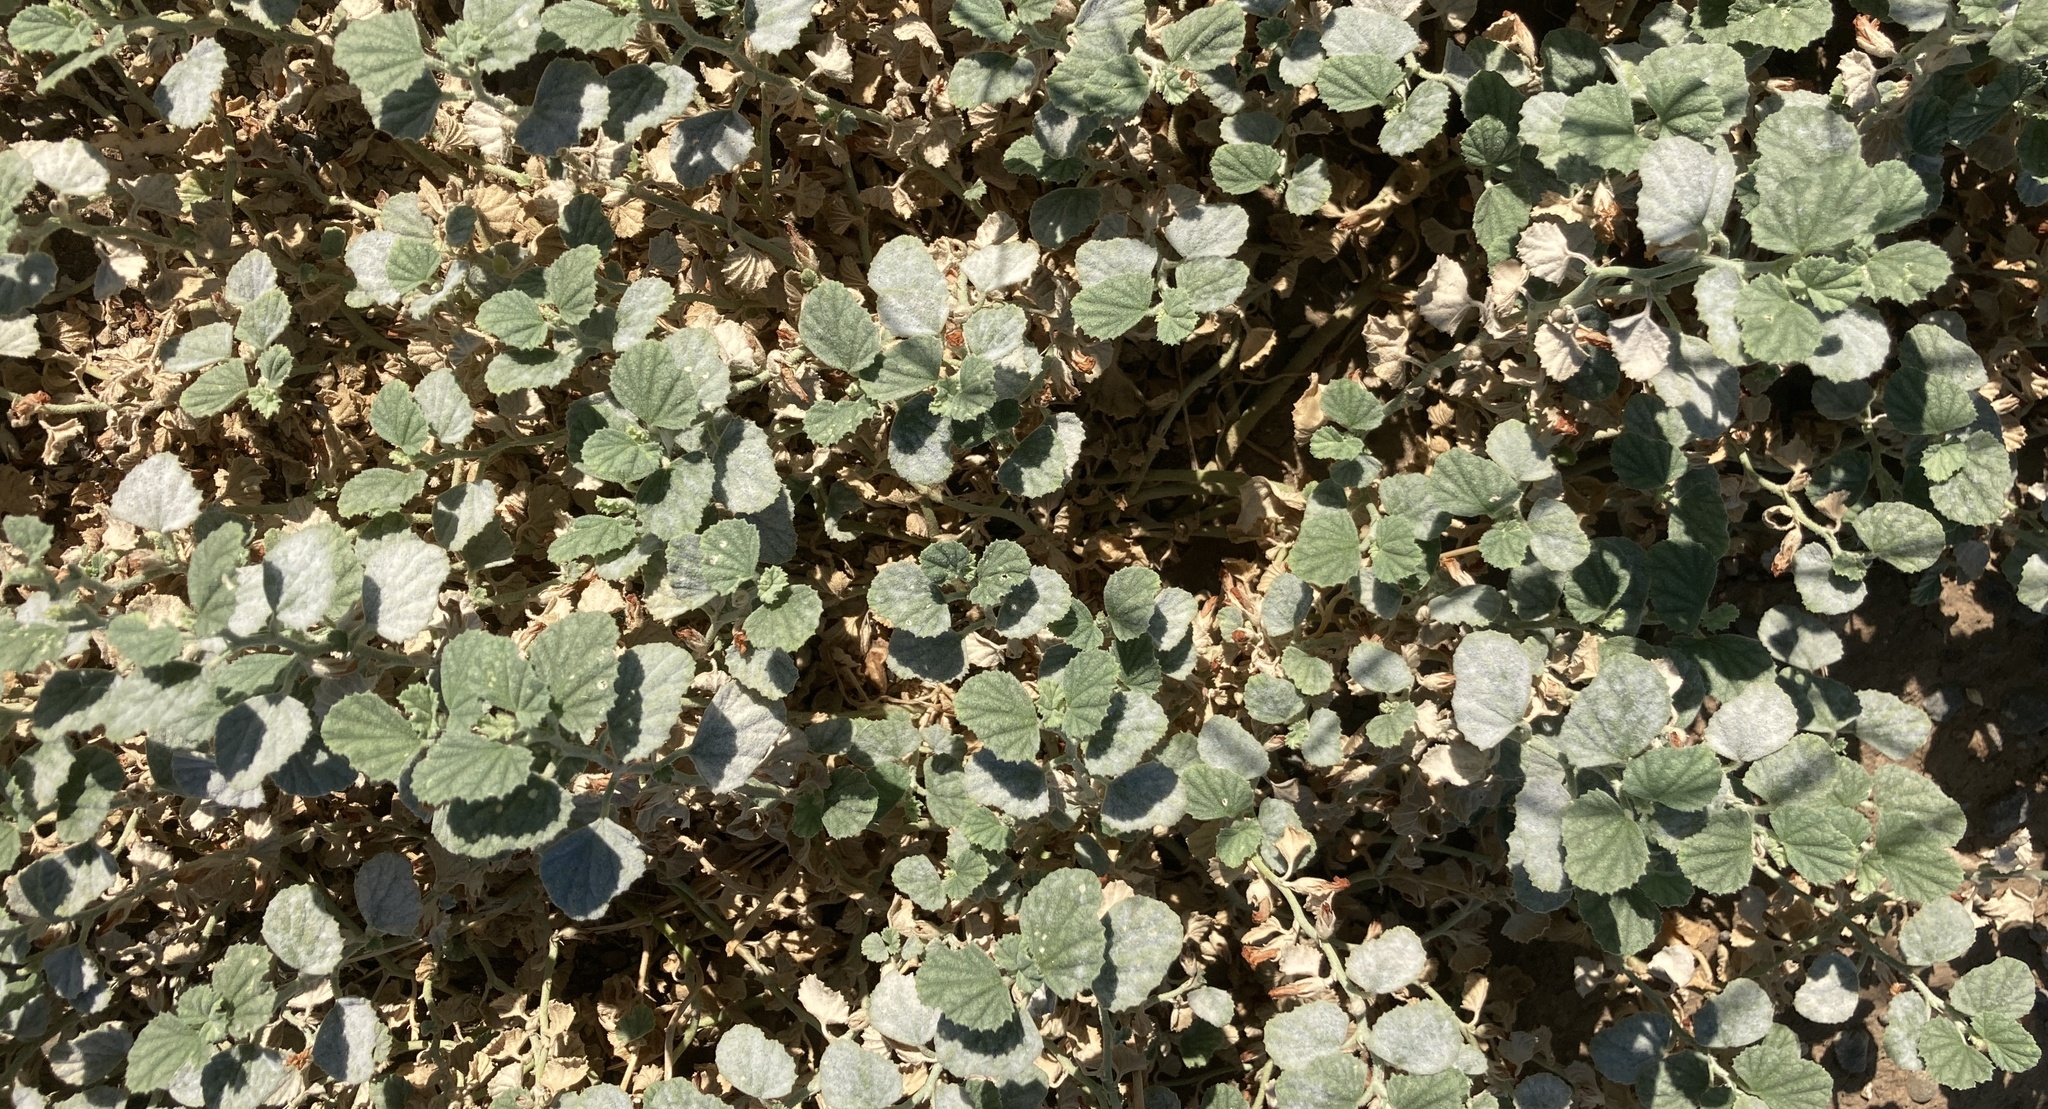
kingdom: Plantae
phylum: Tracheophyta
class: Magnoliopsida
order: Malvales
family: Malvaceae
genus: Malvella
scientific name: Malvella leprosa
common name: Alkali-mallow
